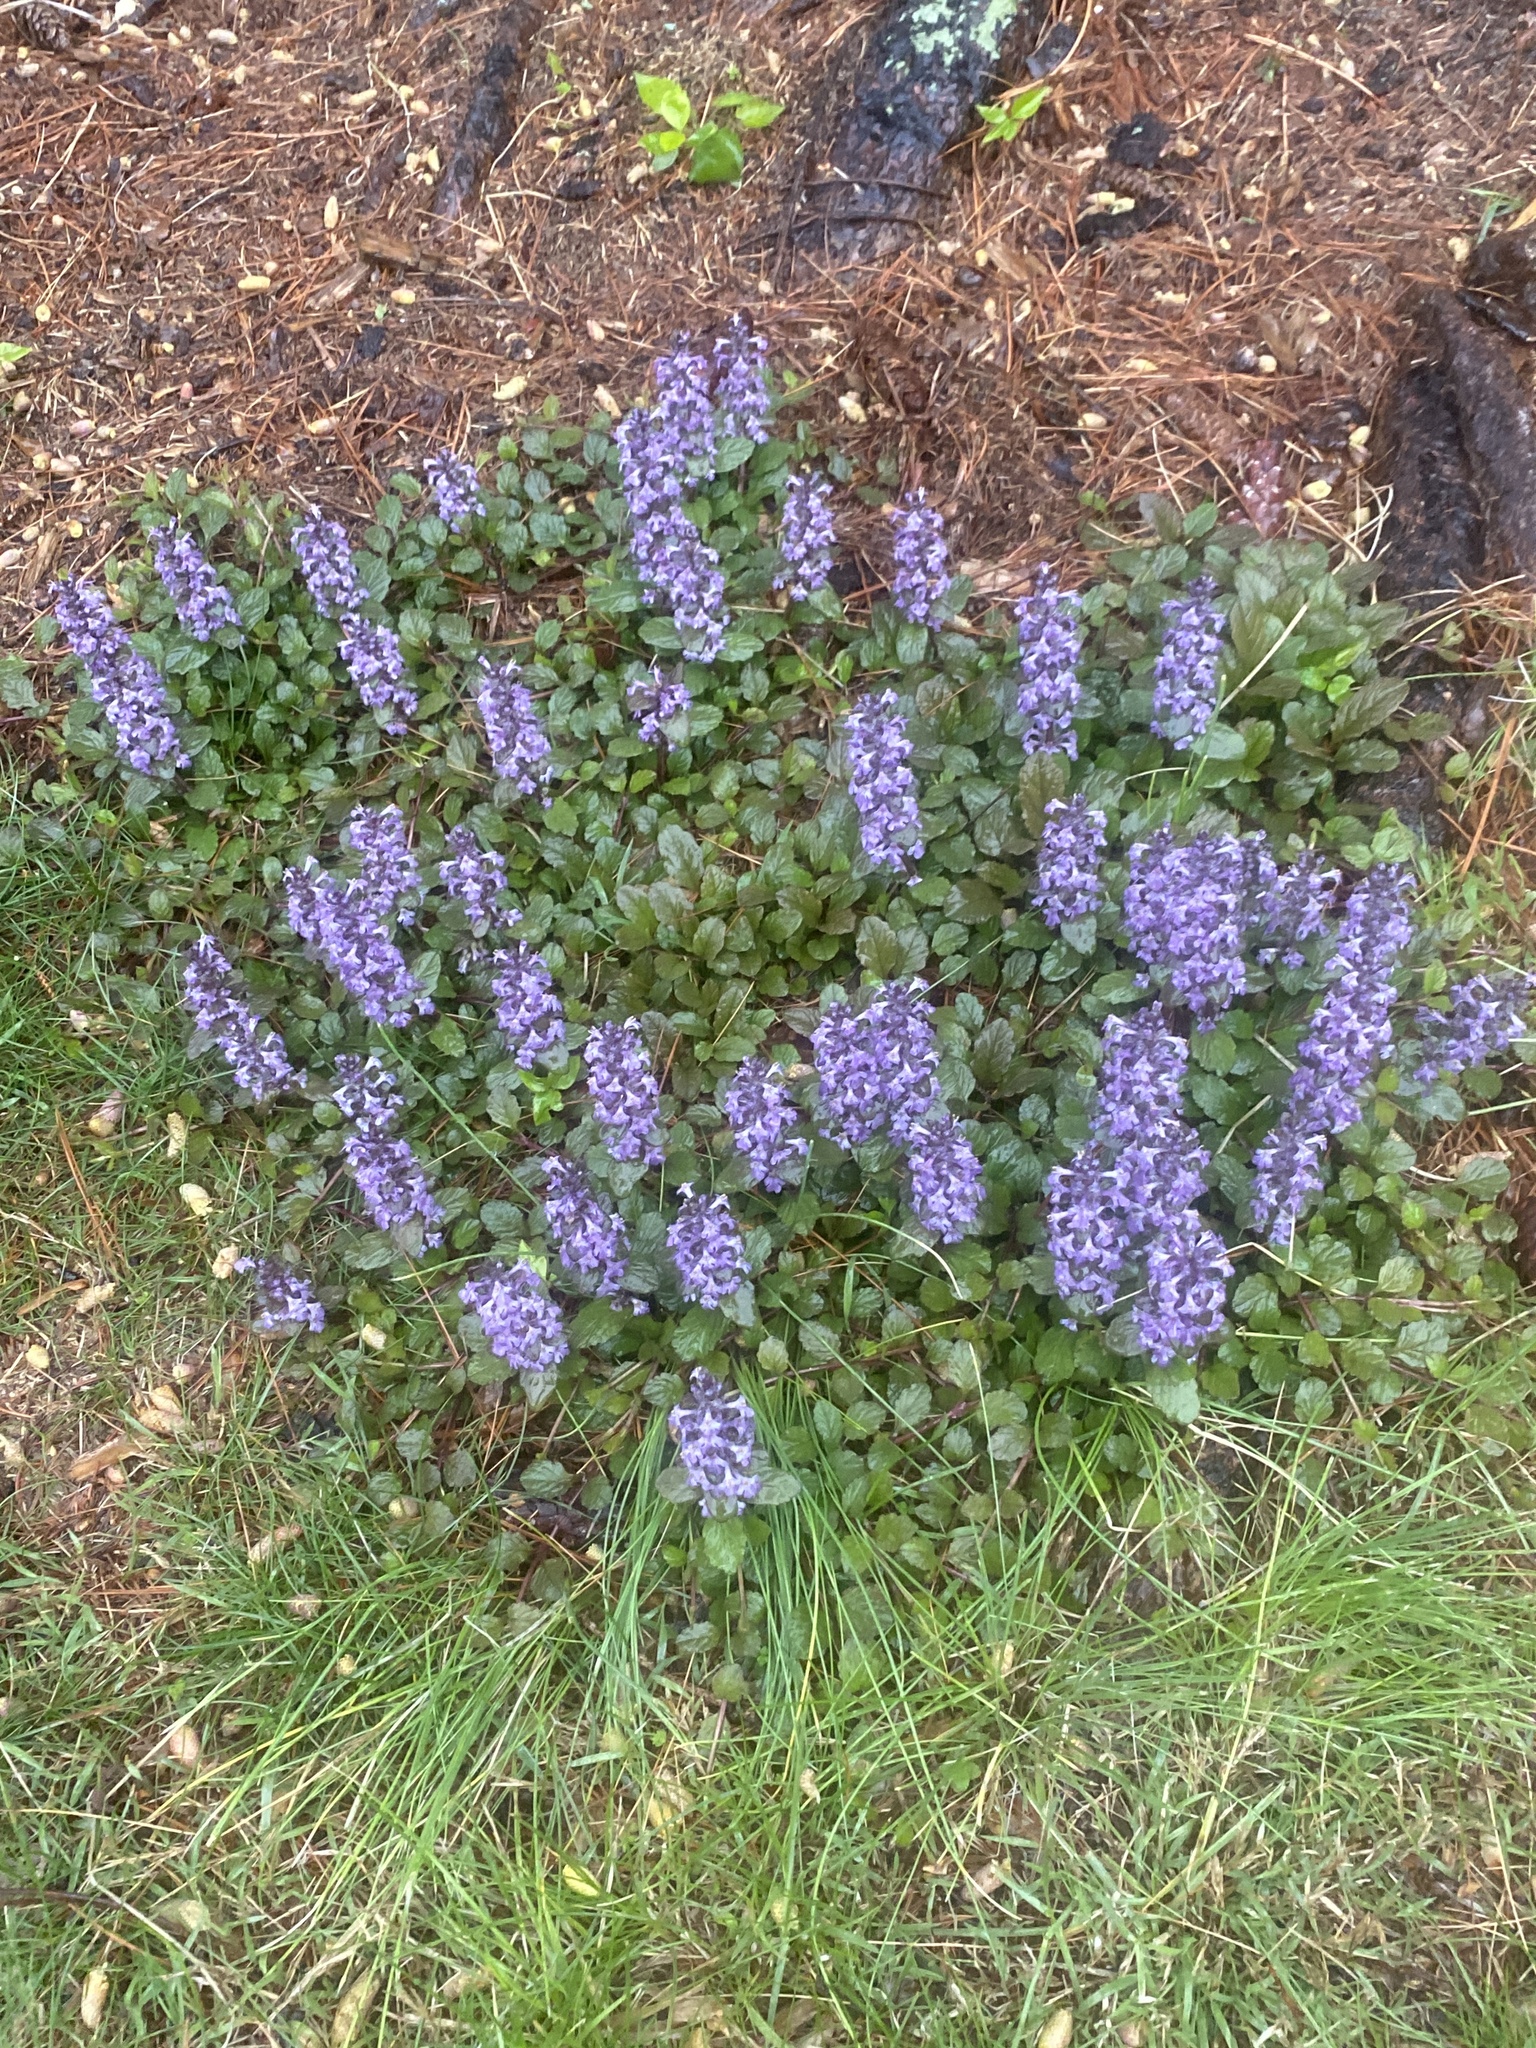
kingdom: Plantae
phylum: Tracheophyta
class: Magnoliopsida
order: Lamiales
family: Lamiaceae
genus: Ajuga
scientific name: Ajuga reptans
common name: Bugle
